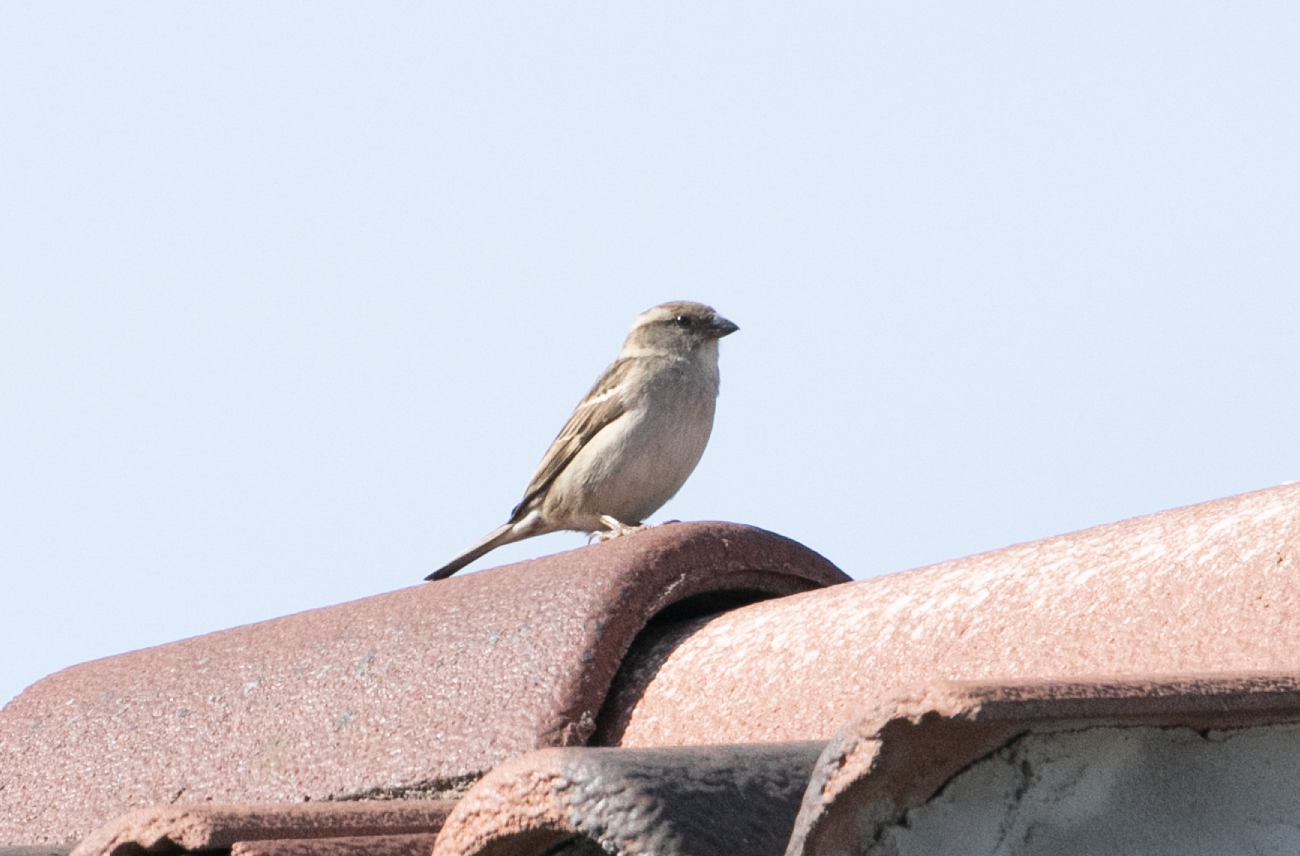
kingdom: Animalia
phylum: Chordata
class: Aves
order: Passeriformes
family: Passeridae
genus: Passer
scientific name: Passer italiae
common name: Italian sparrow
